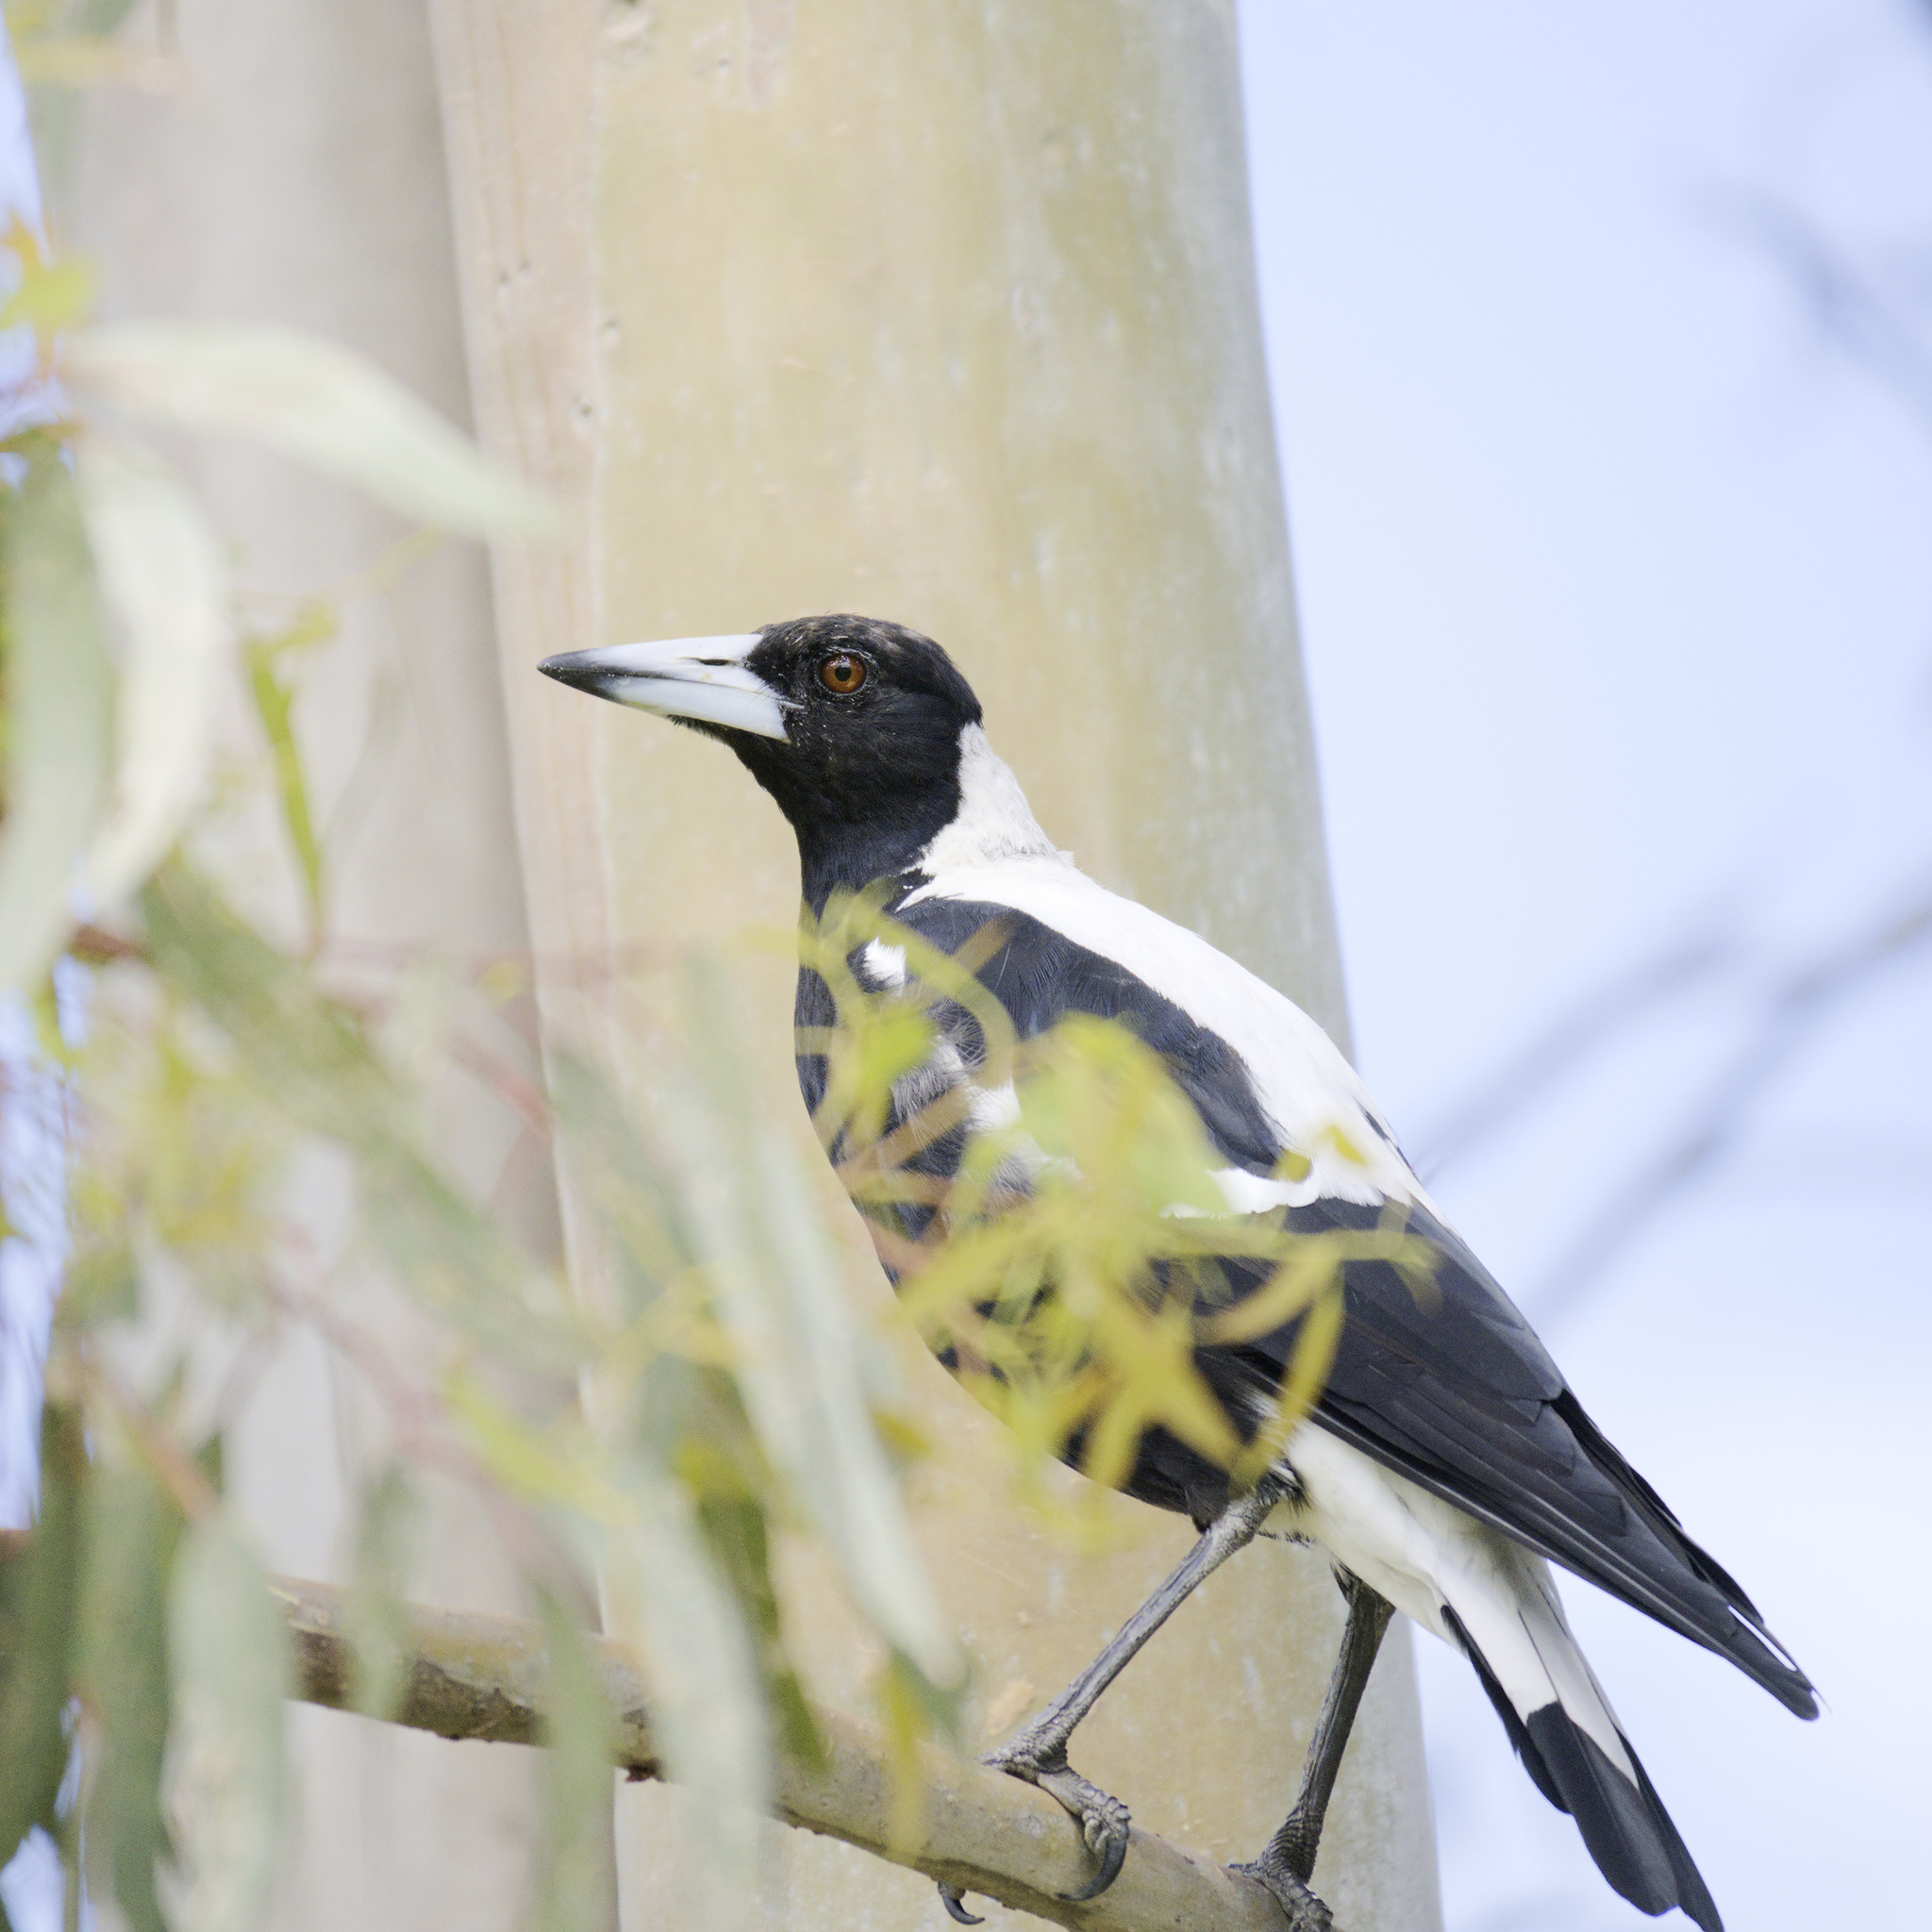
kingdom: Animalia
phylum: Chordata
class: Aves
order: Passeriformes
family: Cracticidae
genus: Gymnorhina
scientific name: Gymnorhina tibicen
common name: Australian magpie
